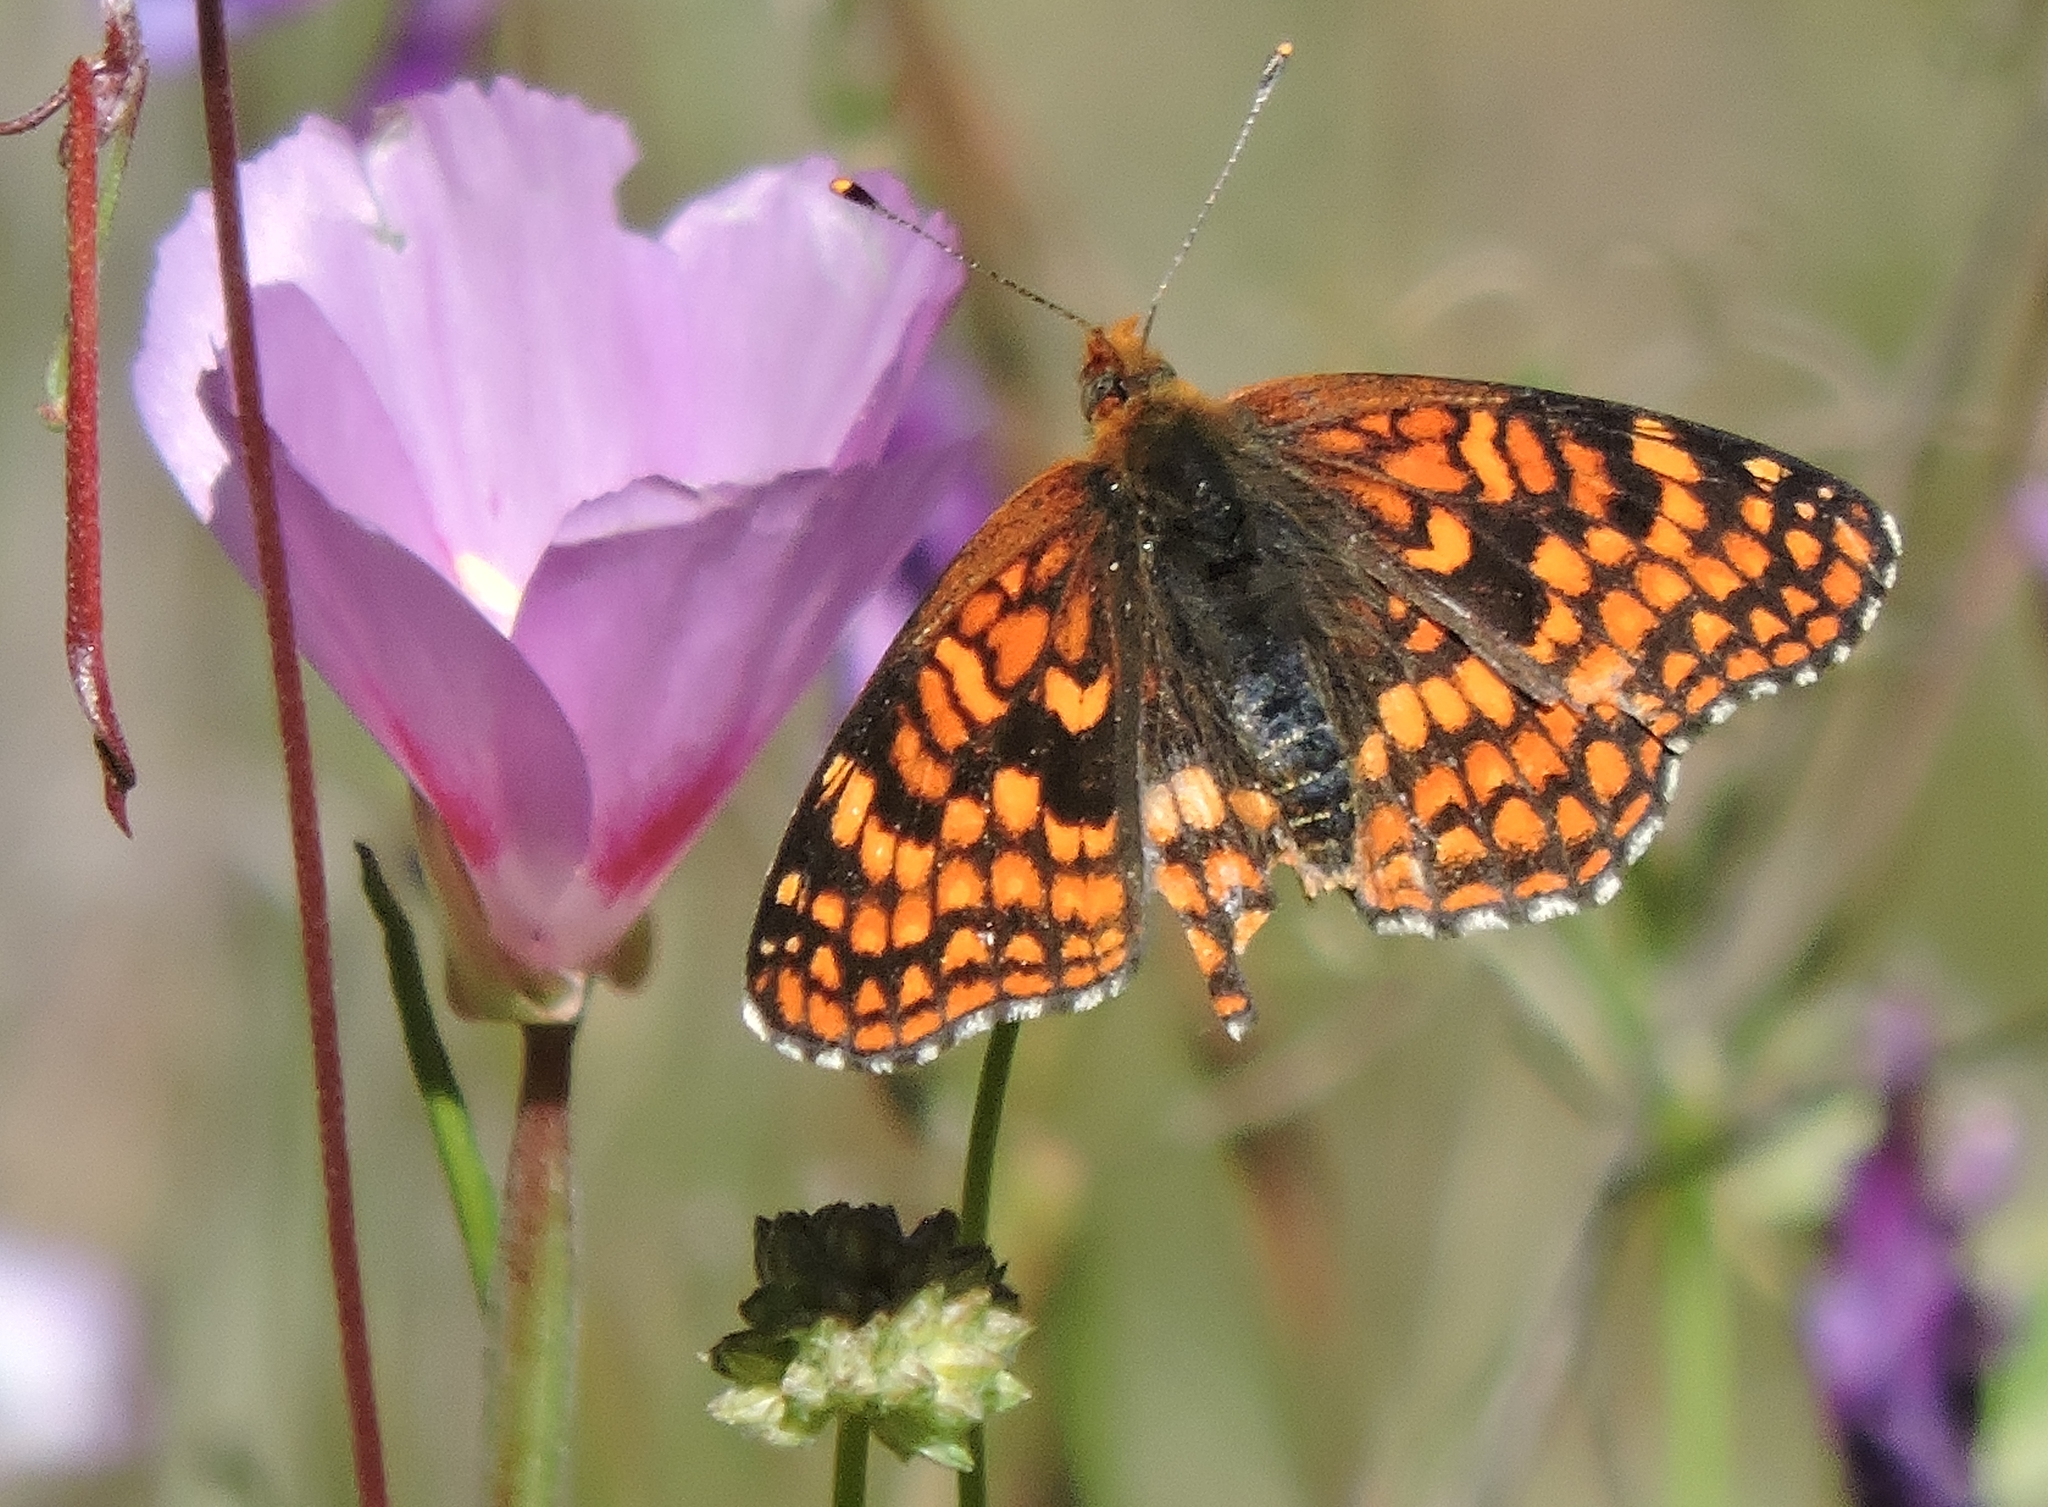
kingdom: Animalia
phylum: Arthropoda
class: Insecta
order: Lepidoptera
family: Nymphalidae
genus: Chlosyne
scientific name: Chlosyne palla
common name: Northern checkerspot
